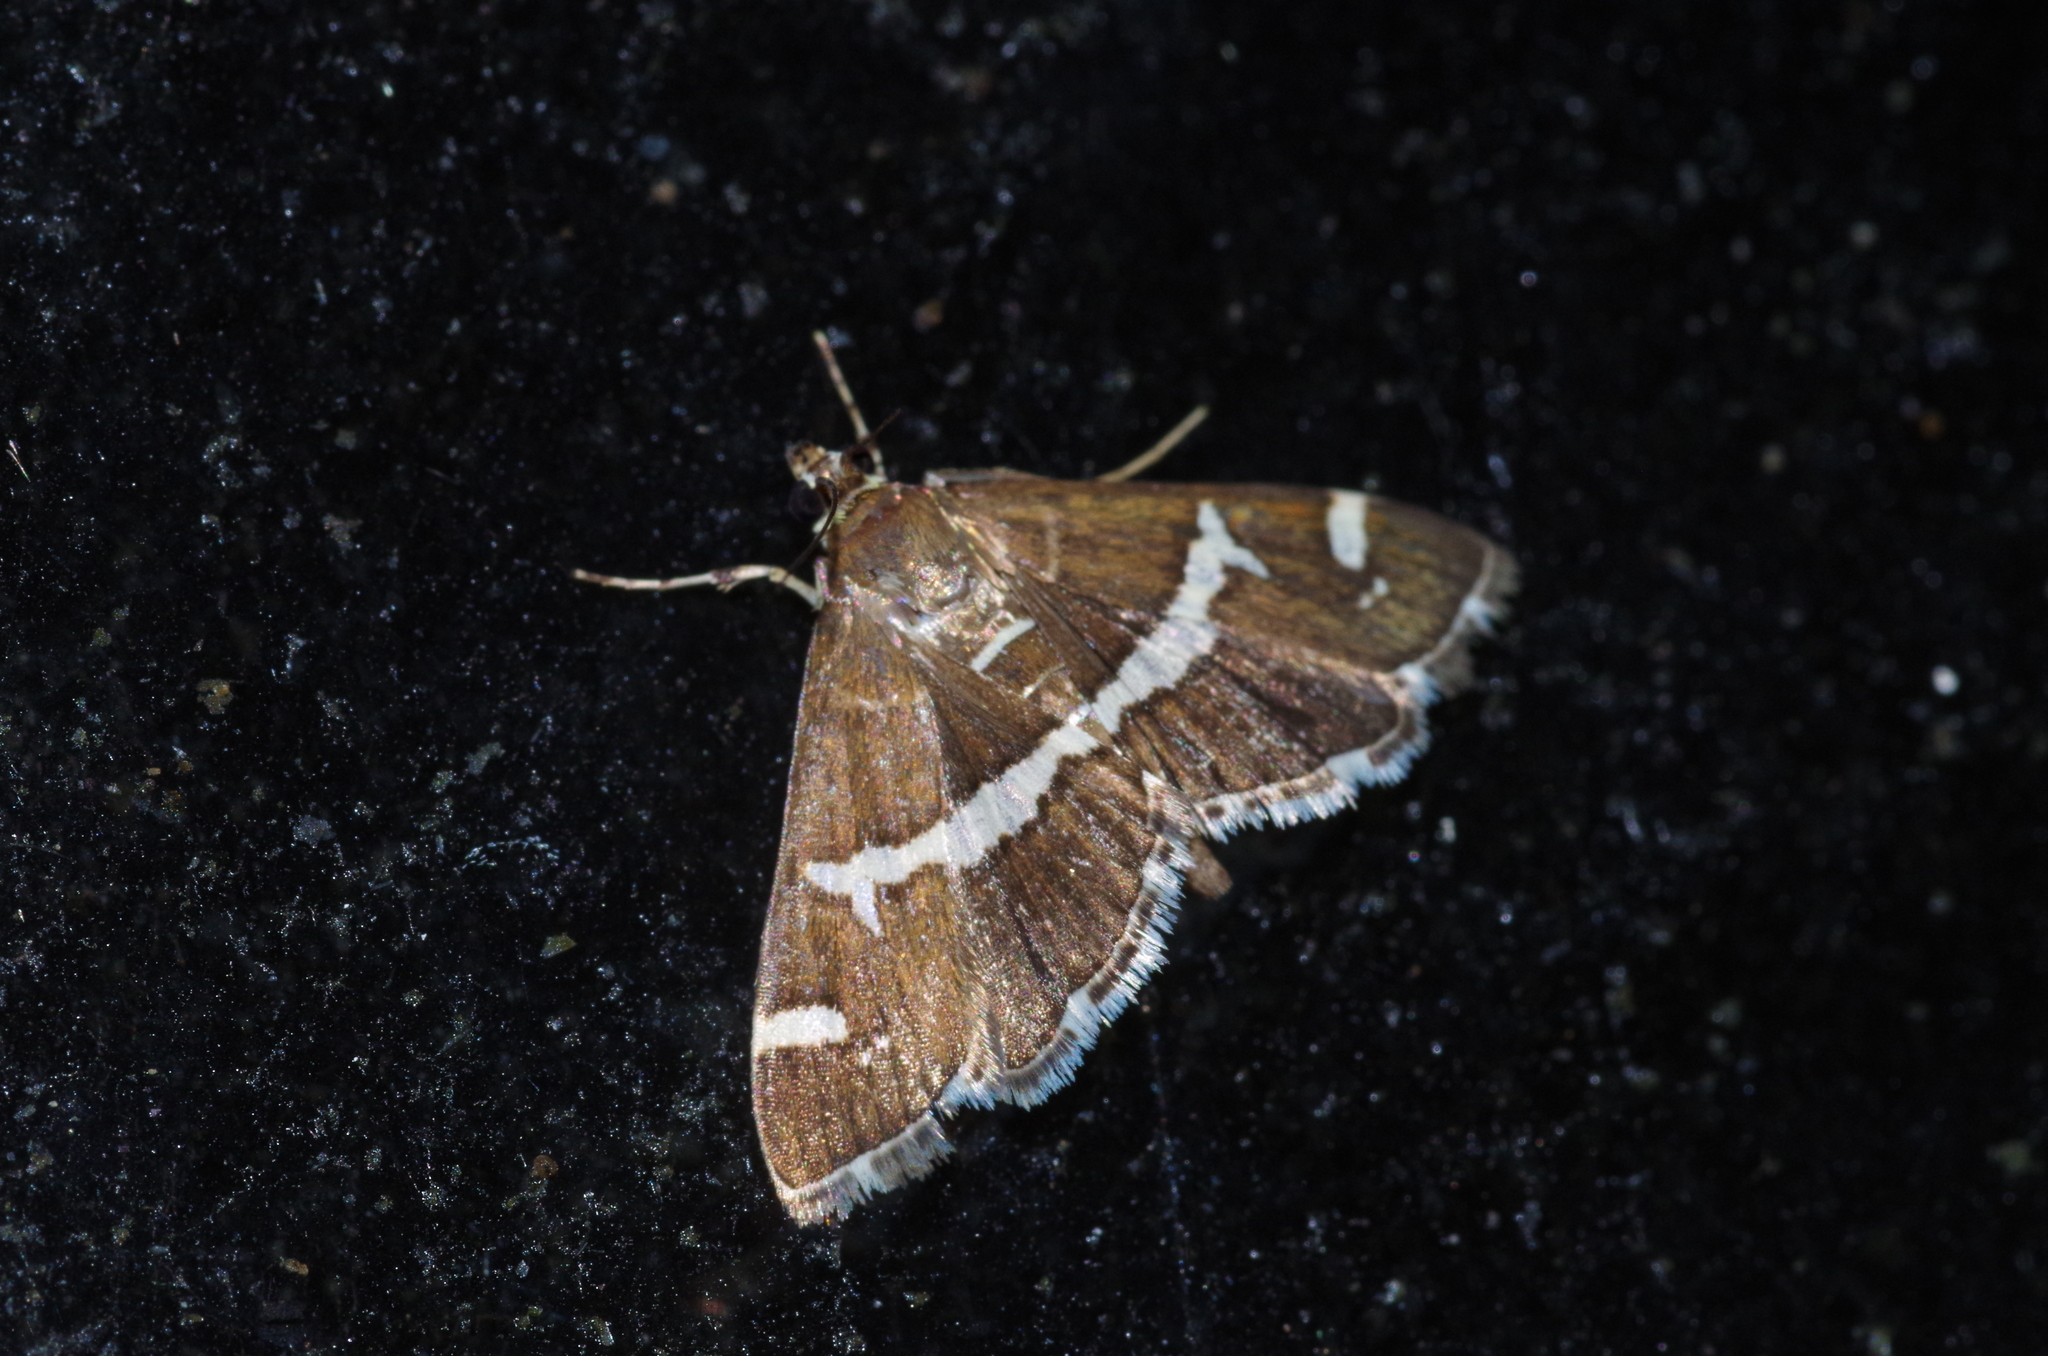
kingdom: Animalia
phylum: Arthropoda
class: Insecta
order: Lepidoptera
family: Crambidae
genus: Spoladea
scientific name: Spoladea recurvalis
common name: Beet webworm moth
